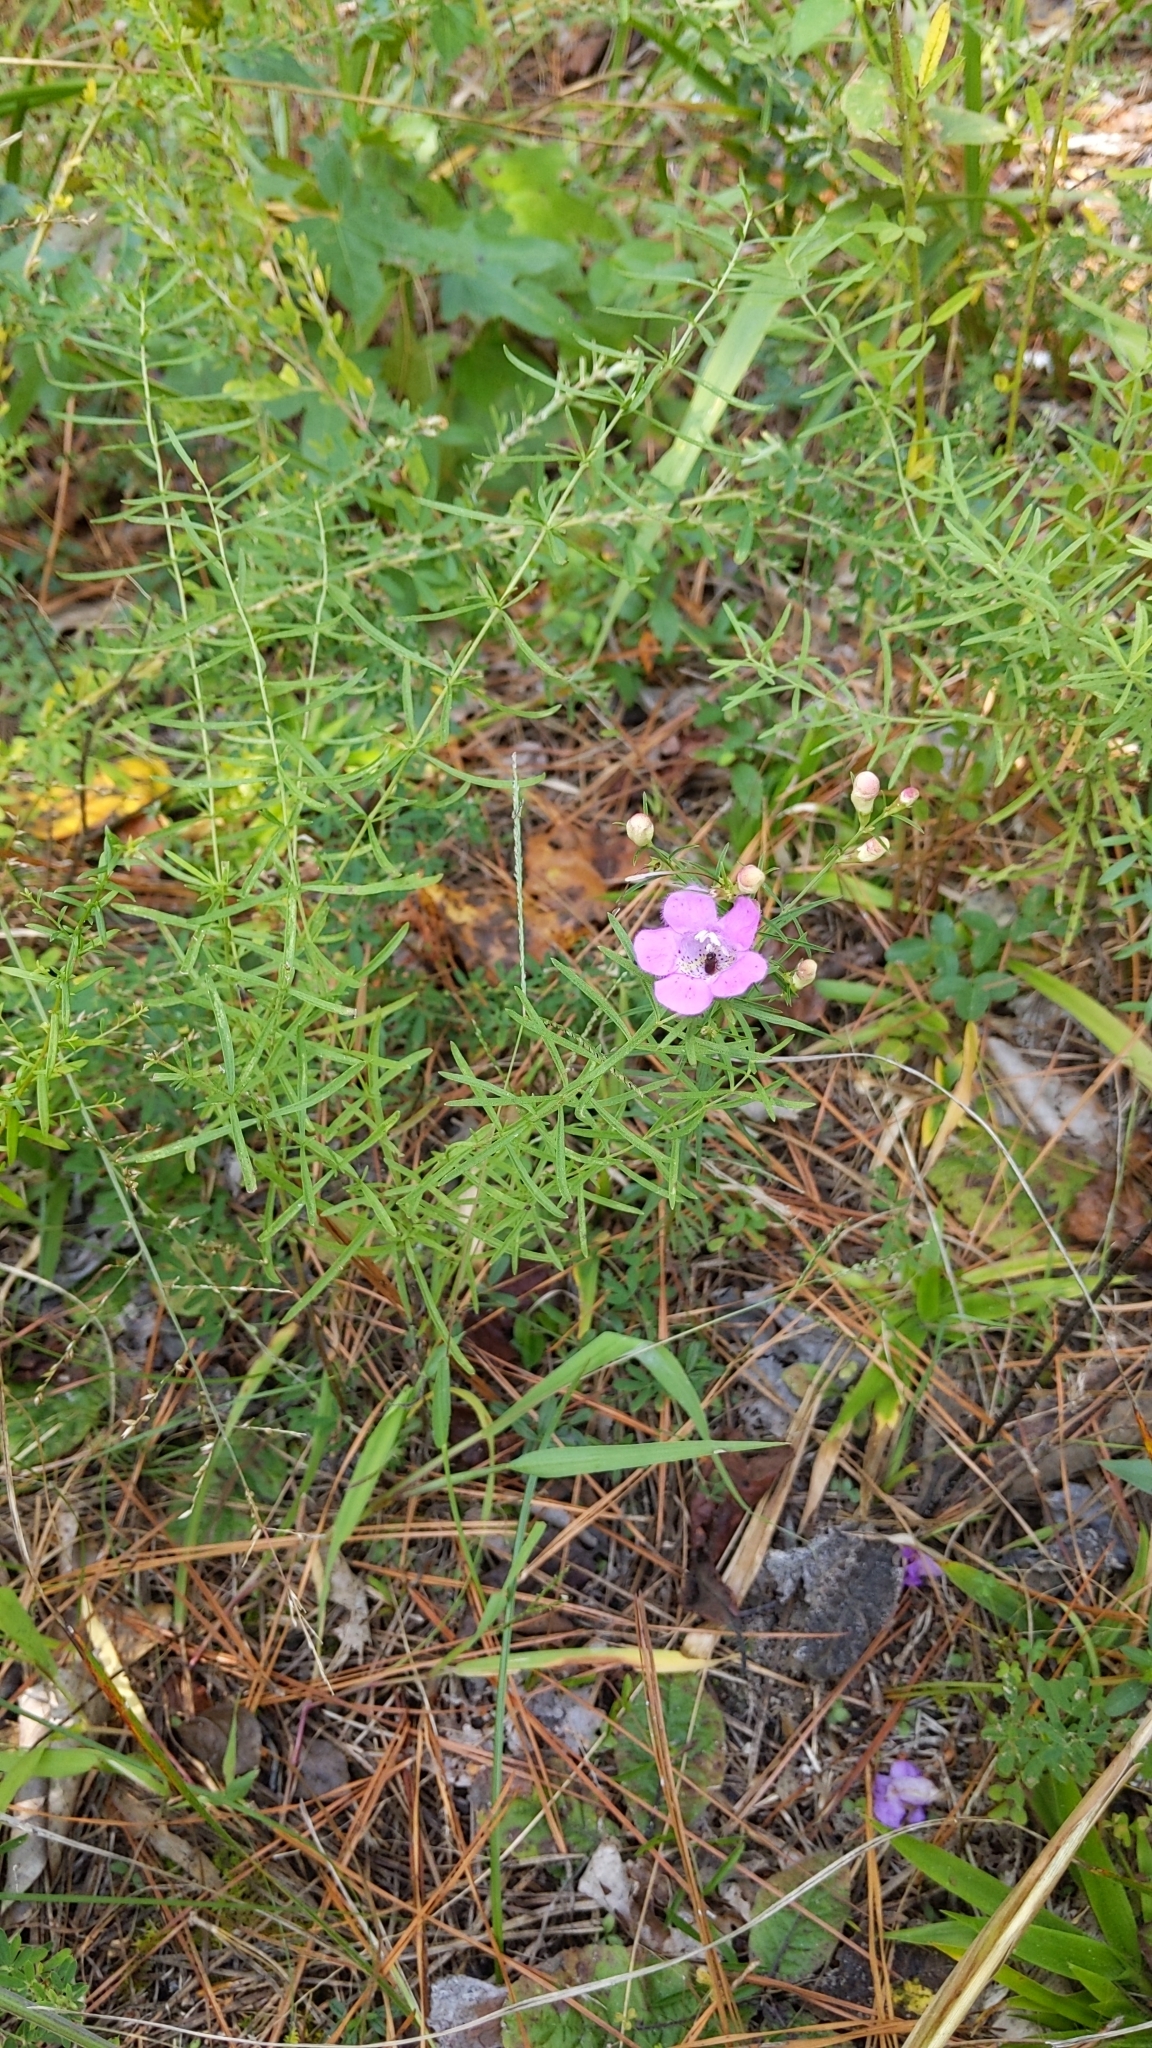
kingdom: Plantae
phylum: Tracheophyta
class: Magnoliopsida
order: Lamiales
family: Orobanchaceae
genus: Agalinis
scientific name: Agalinis purpurea
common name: Purple false foxglove
